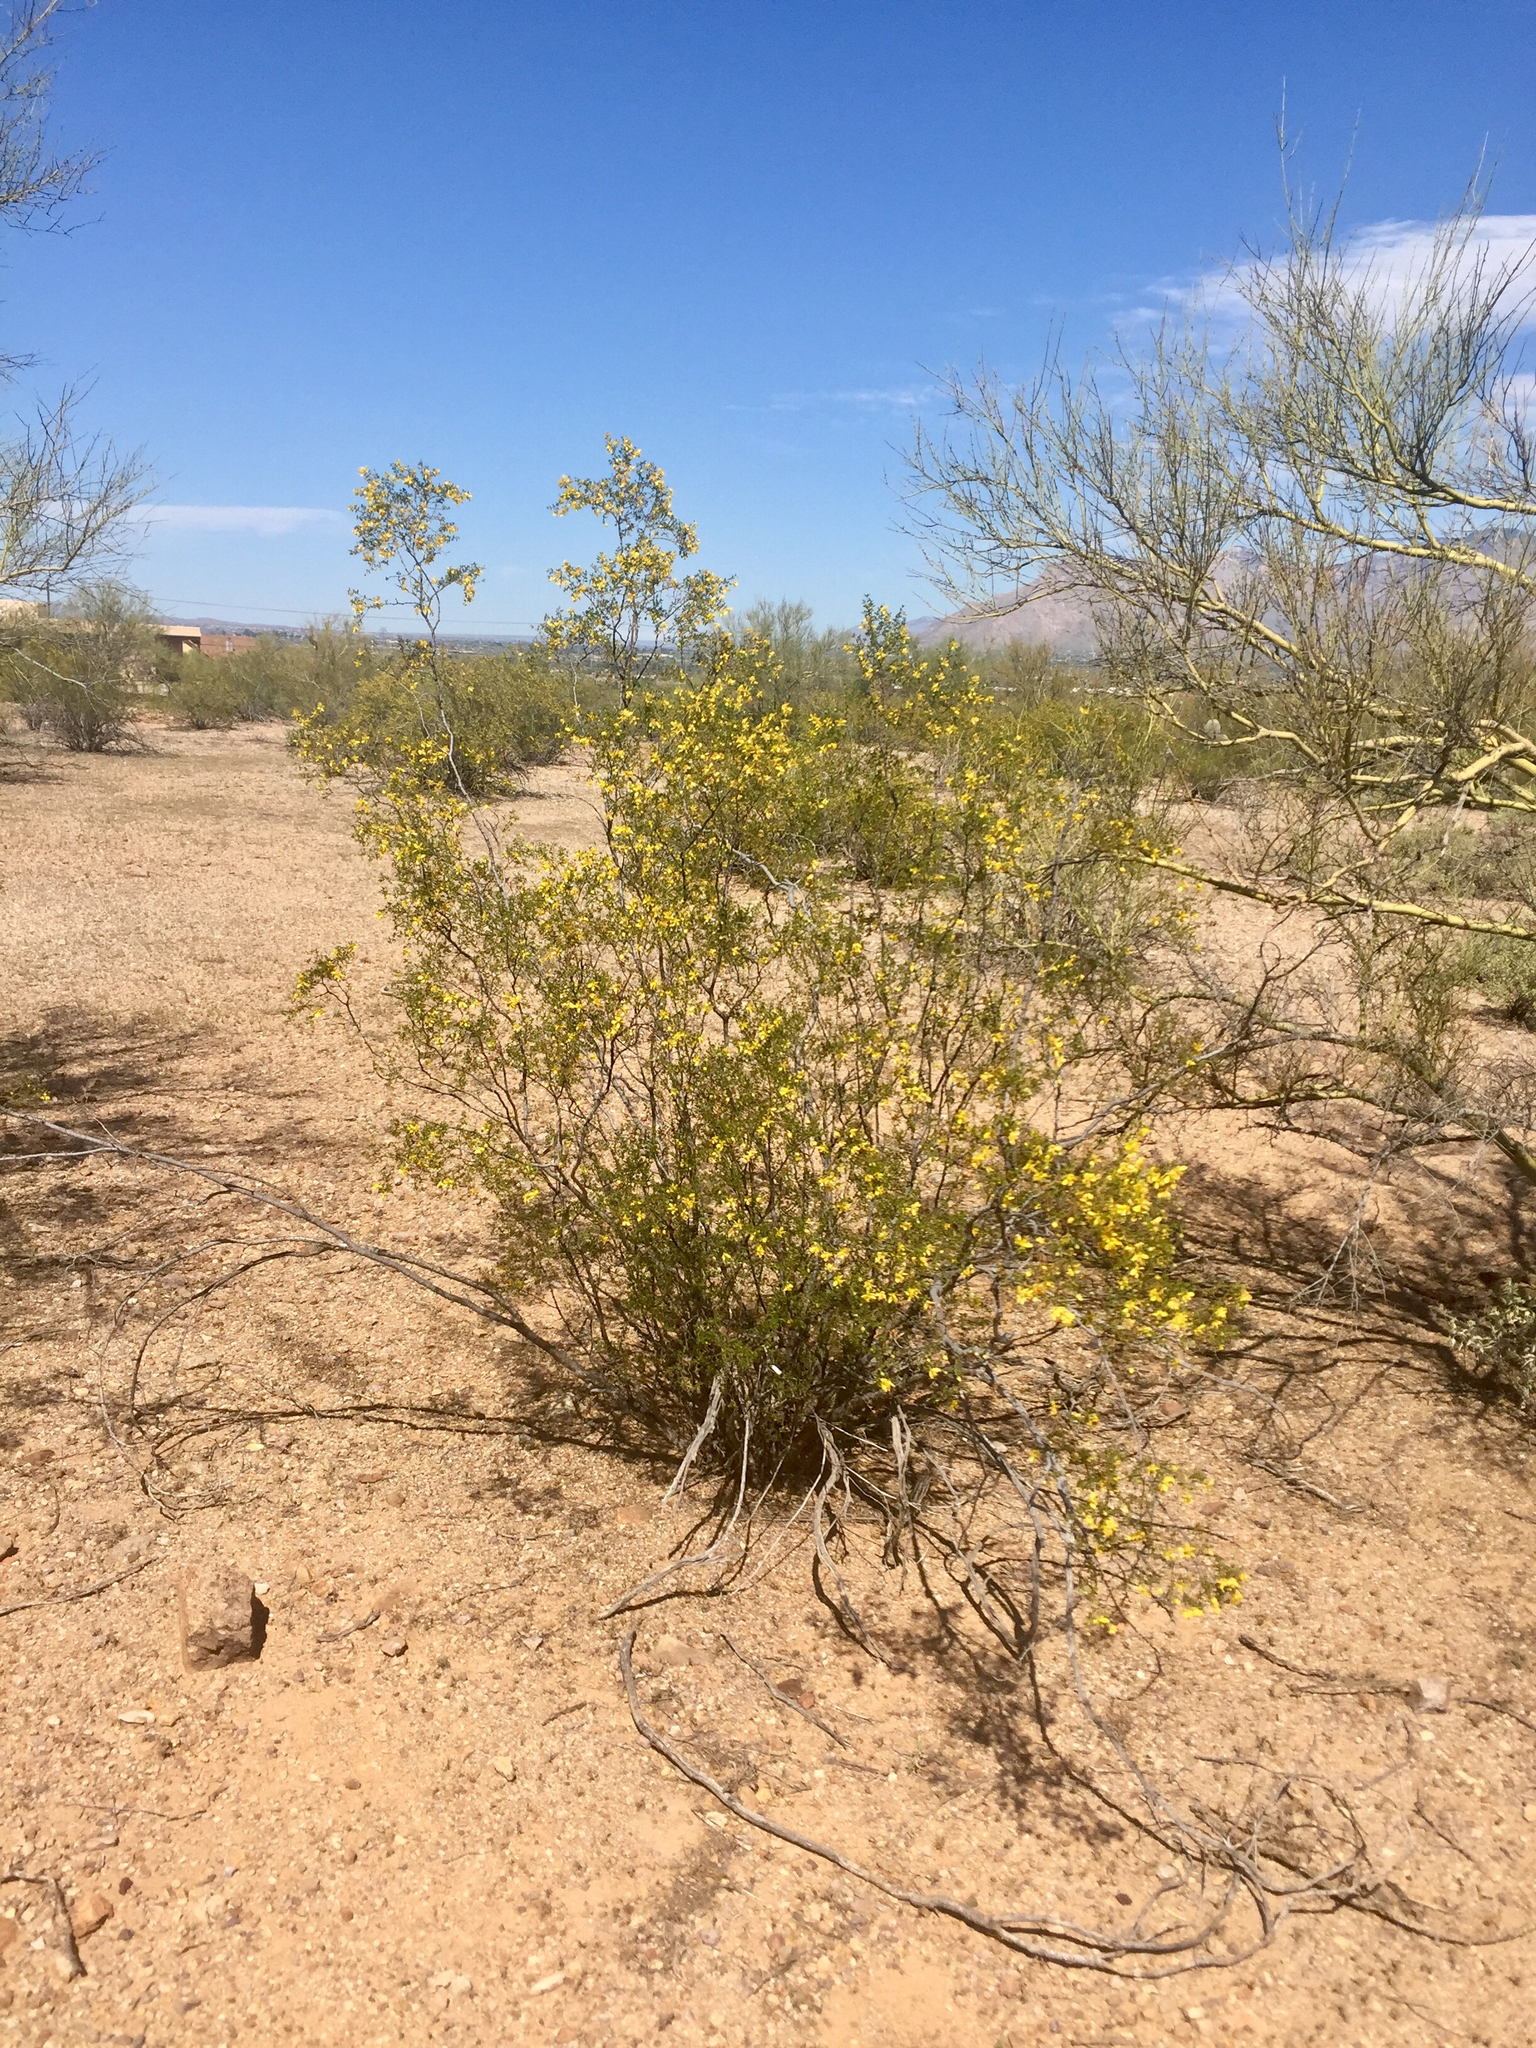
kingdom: Plantae
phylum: Tracheophyta
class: Magnoliopsida
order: Zygophyllales
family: Zygophyllaceae
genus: Larrea
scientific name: Larrea tridentata
